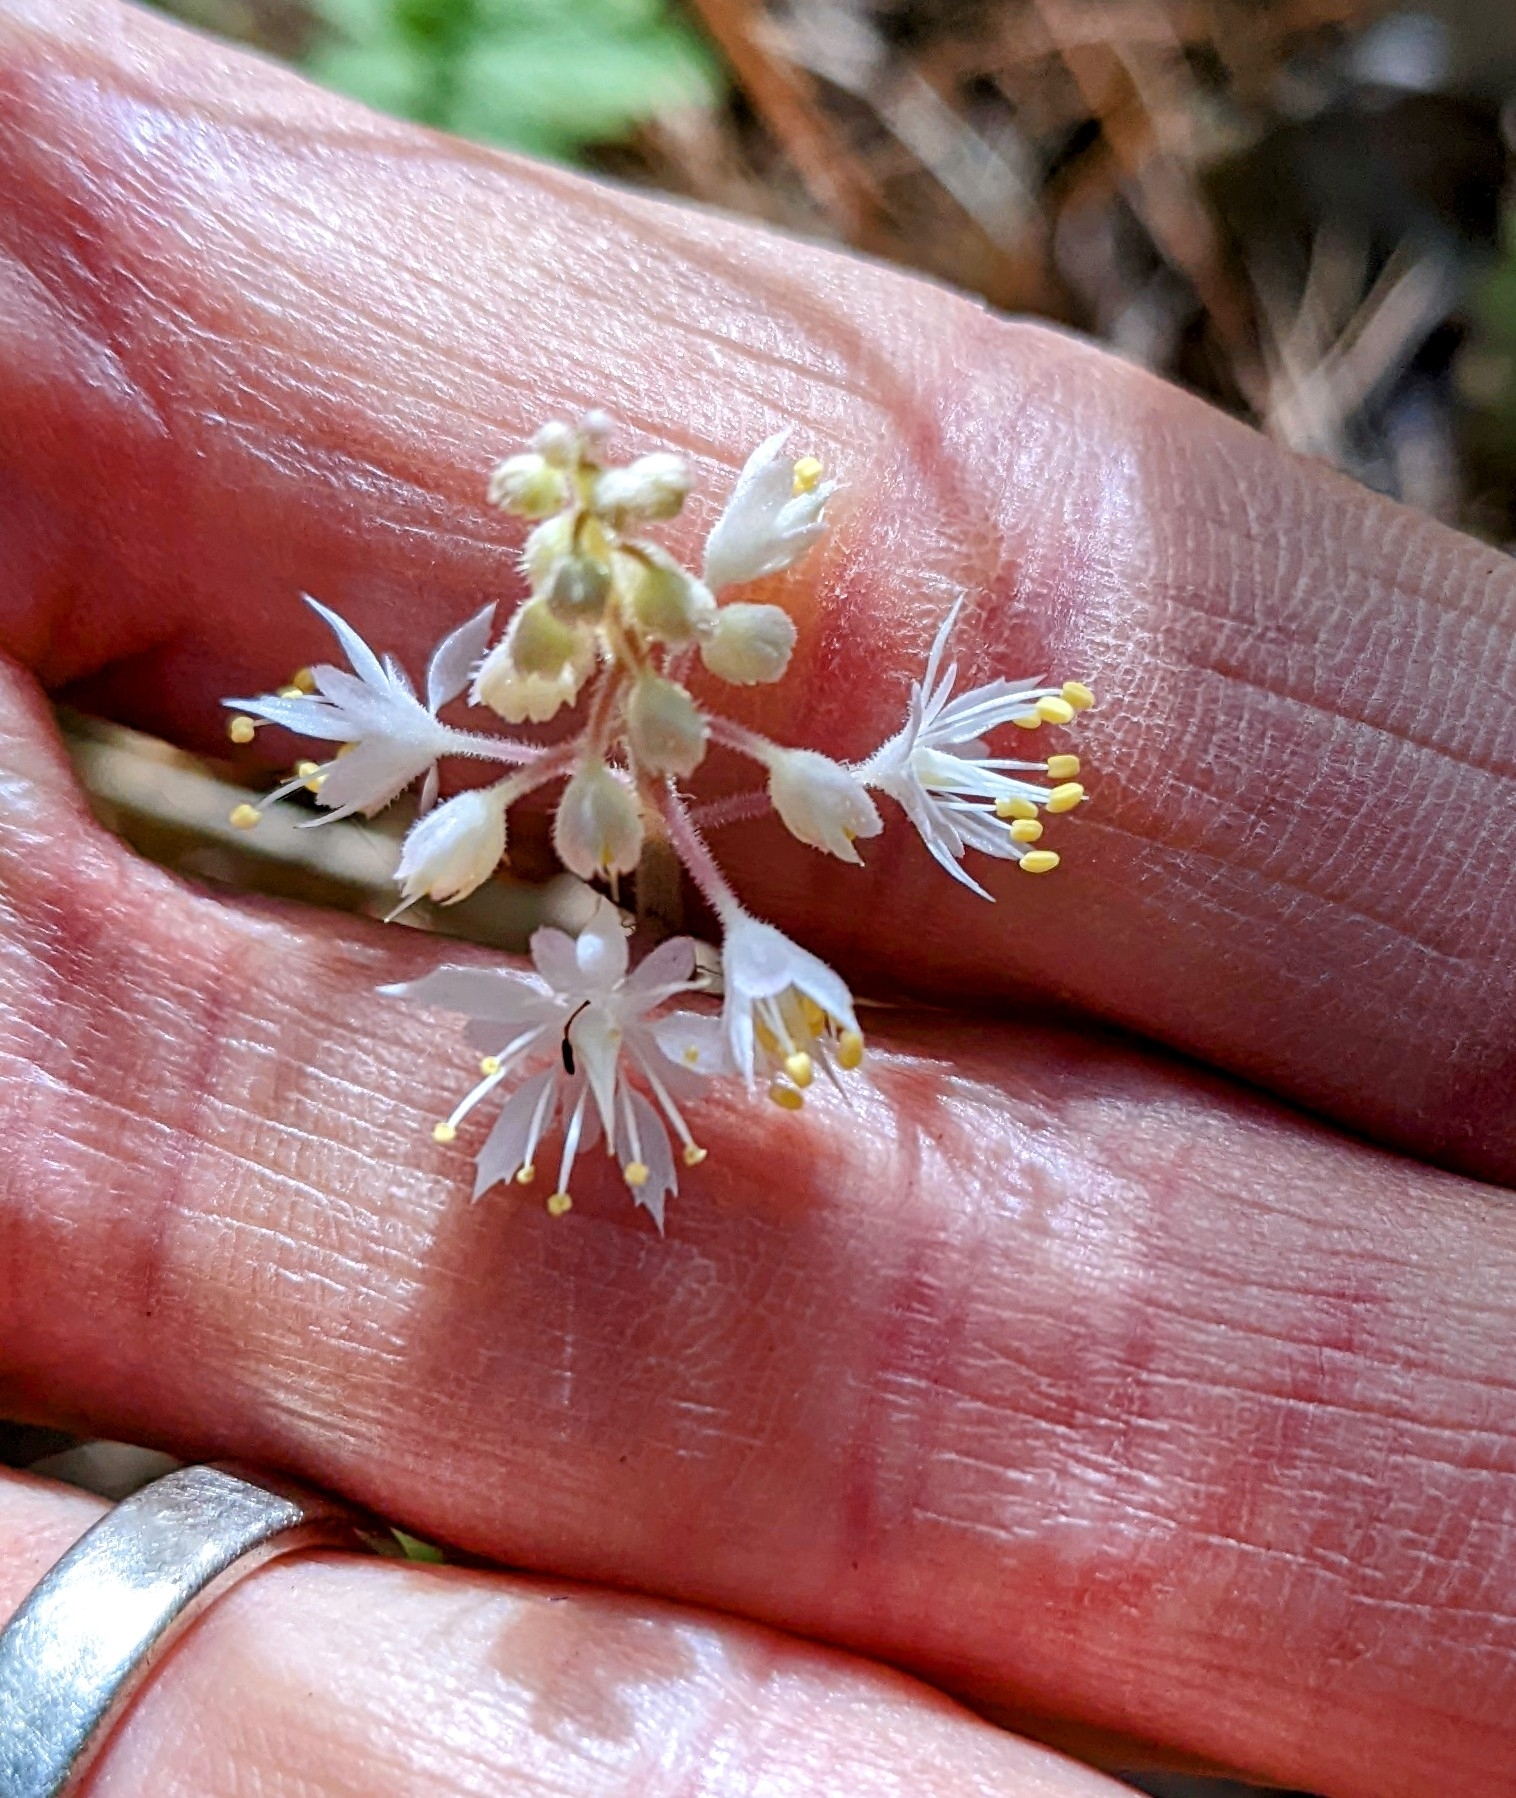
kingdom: Plantae
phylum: Tracheophyta
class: Magnoliopsida
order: Saxifragales
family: Saxifragaceae
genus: Tiarella
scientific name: Tiarella stolonifera
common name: Stoloniferous foamflower
